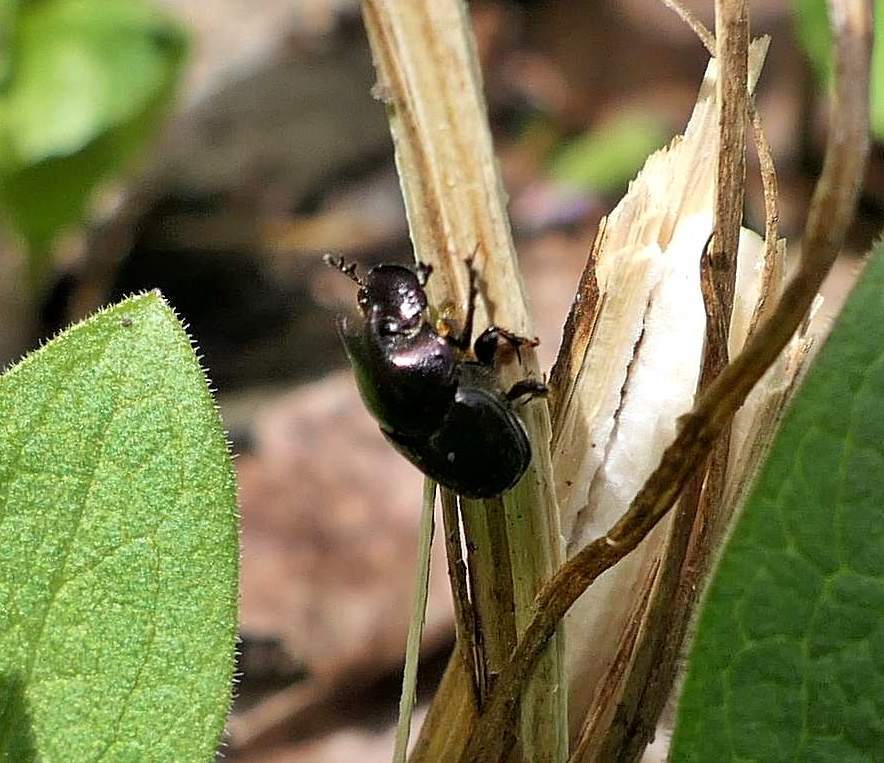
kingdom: Animalia
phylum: Arthropoda
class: Insecta
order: Coleoptera
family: Scarabaeidae
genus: Onthophagus
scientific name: Onthophagus orpheus
